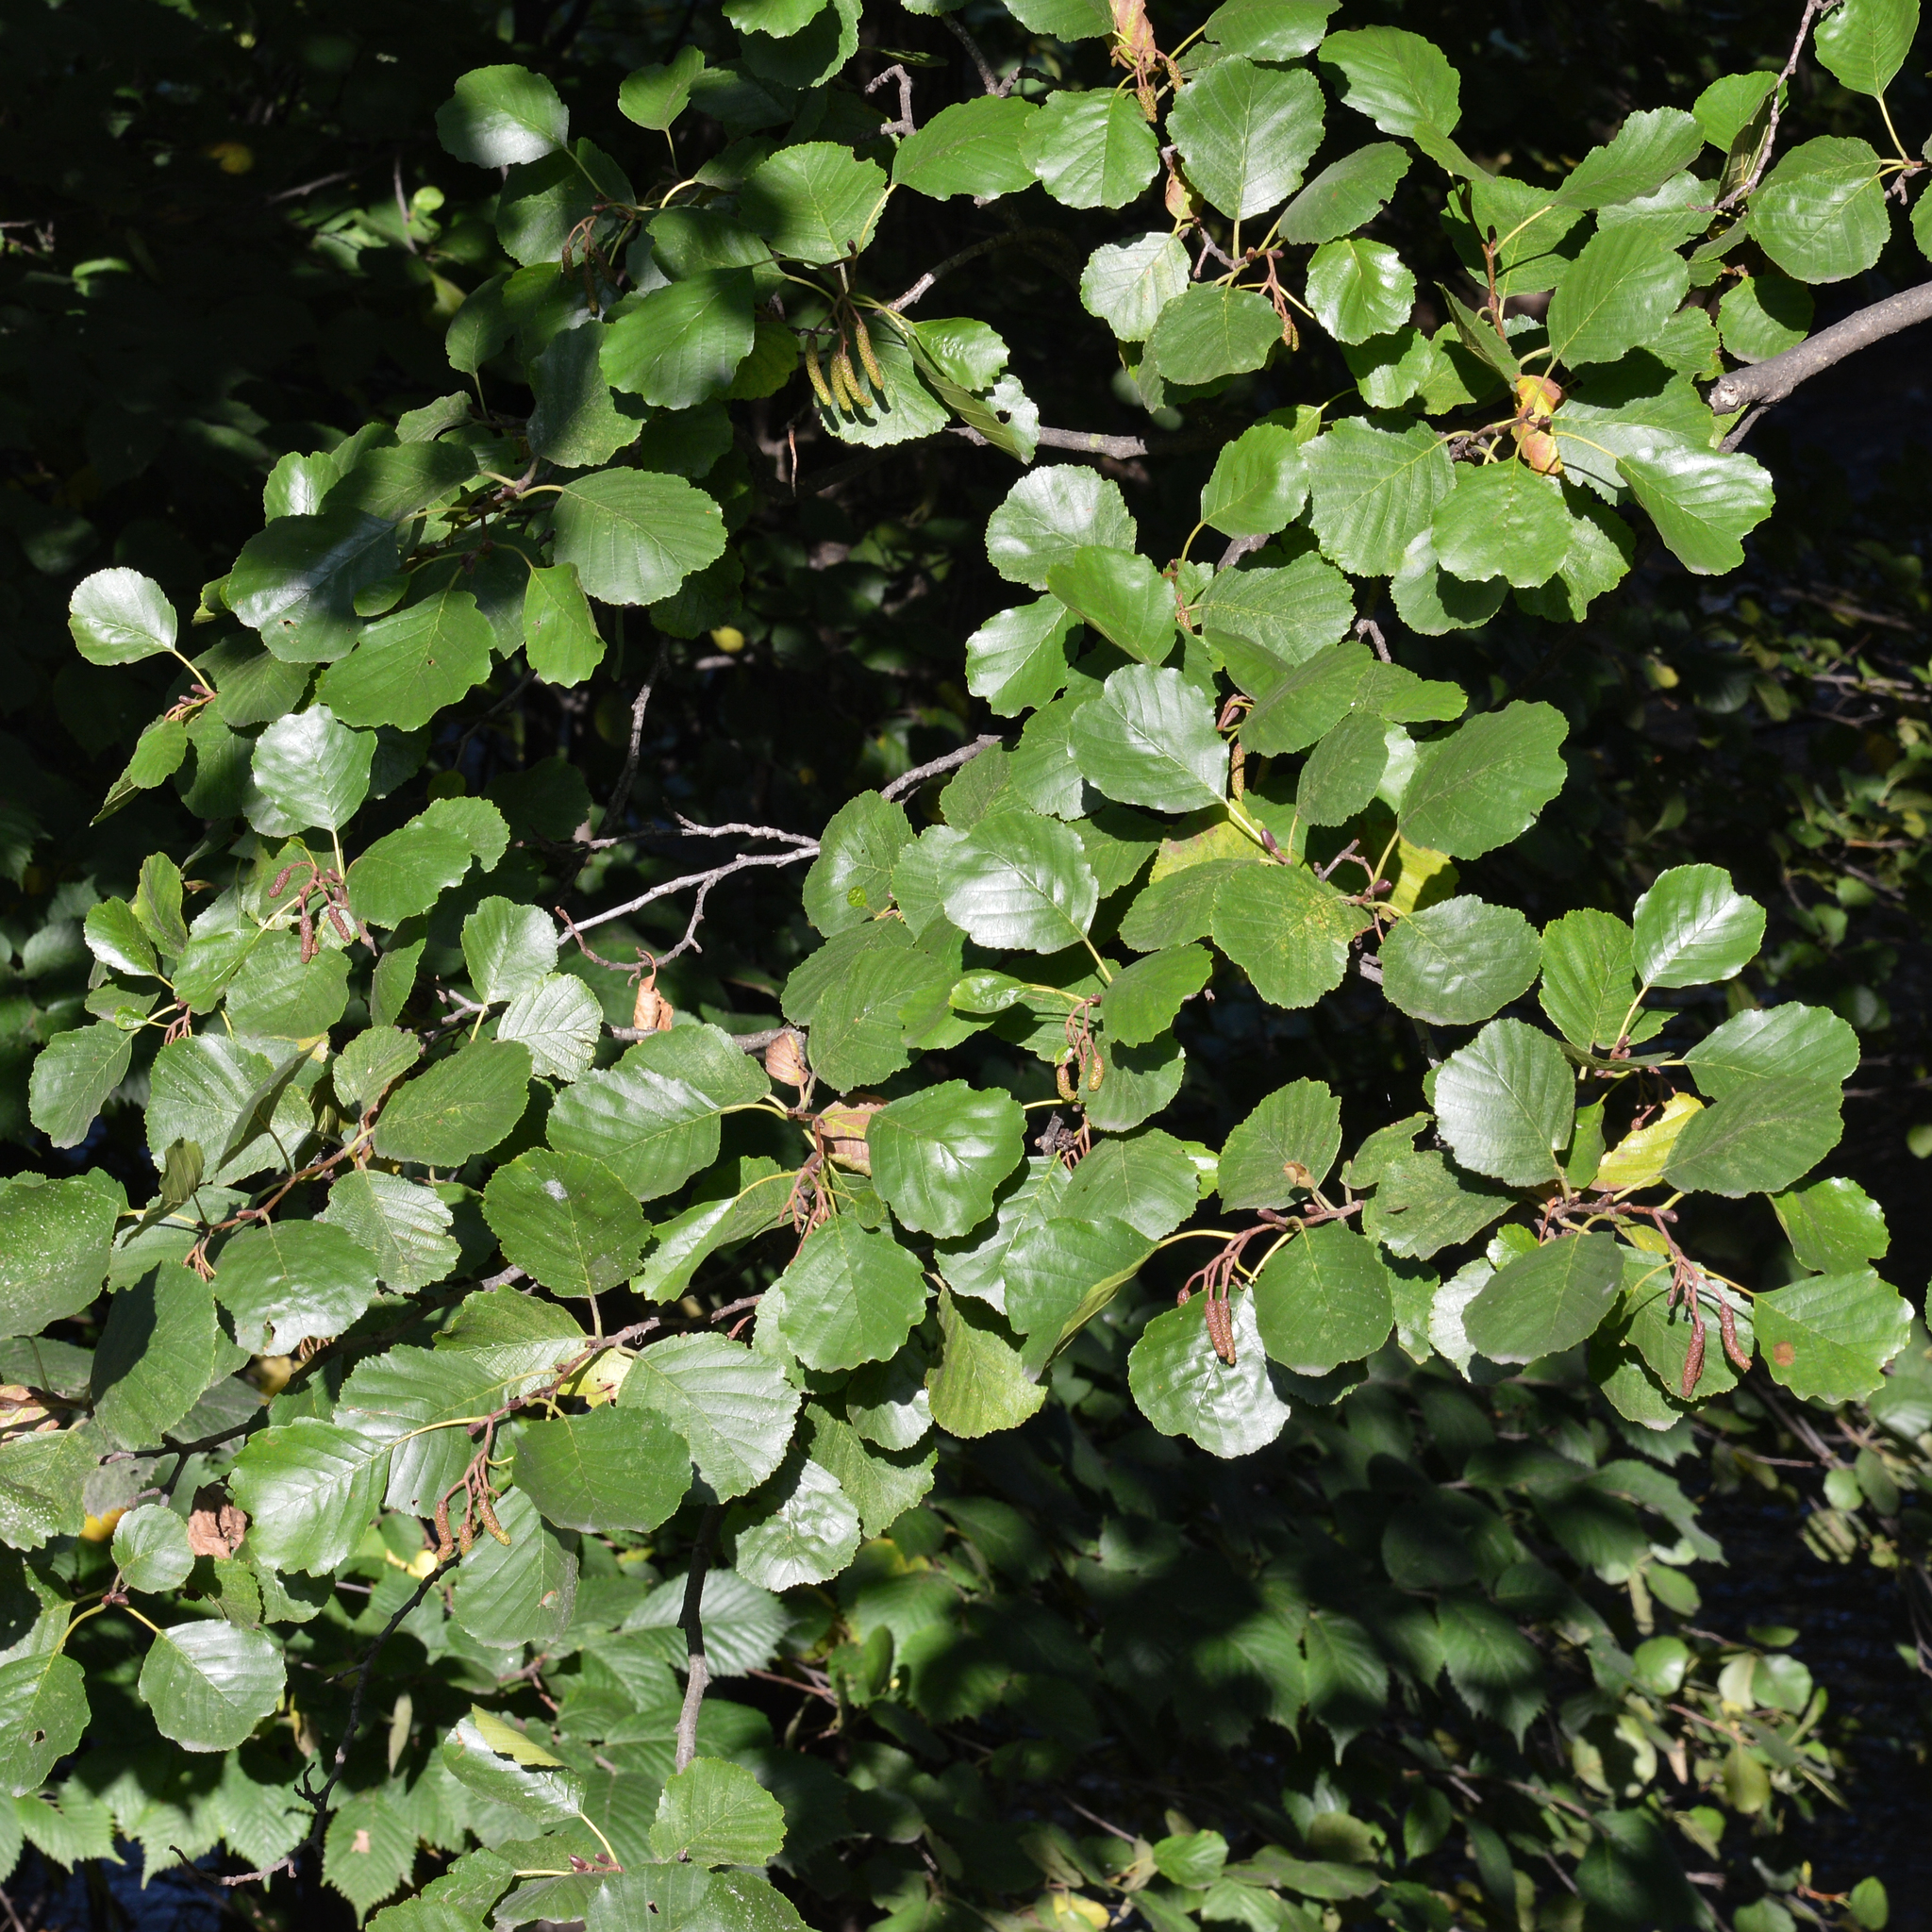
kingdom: Plantae
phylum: Tracheophyta
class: Magnoliopsida
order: Fagales
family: Betulaceae
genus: Alnus
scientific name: Alnus glutinosa
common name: Black alder
